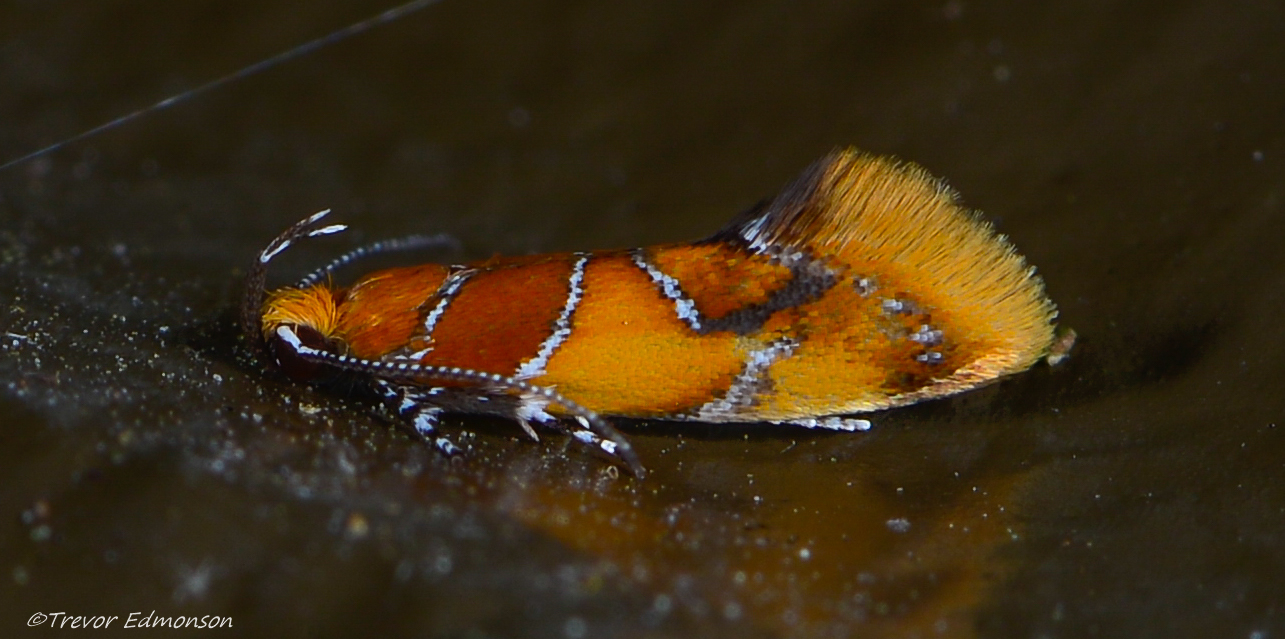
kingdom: Animalia
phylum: Arthropoda
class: Insecta
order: Lepidoptera
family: Oecophoridae
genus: Callima
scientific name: Callima argenticinctella
